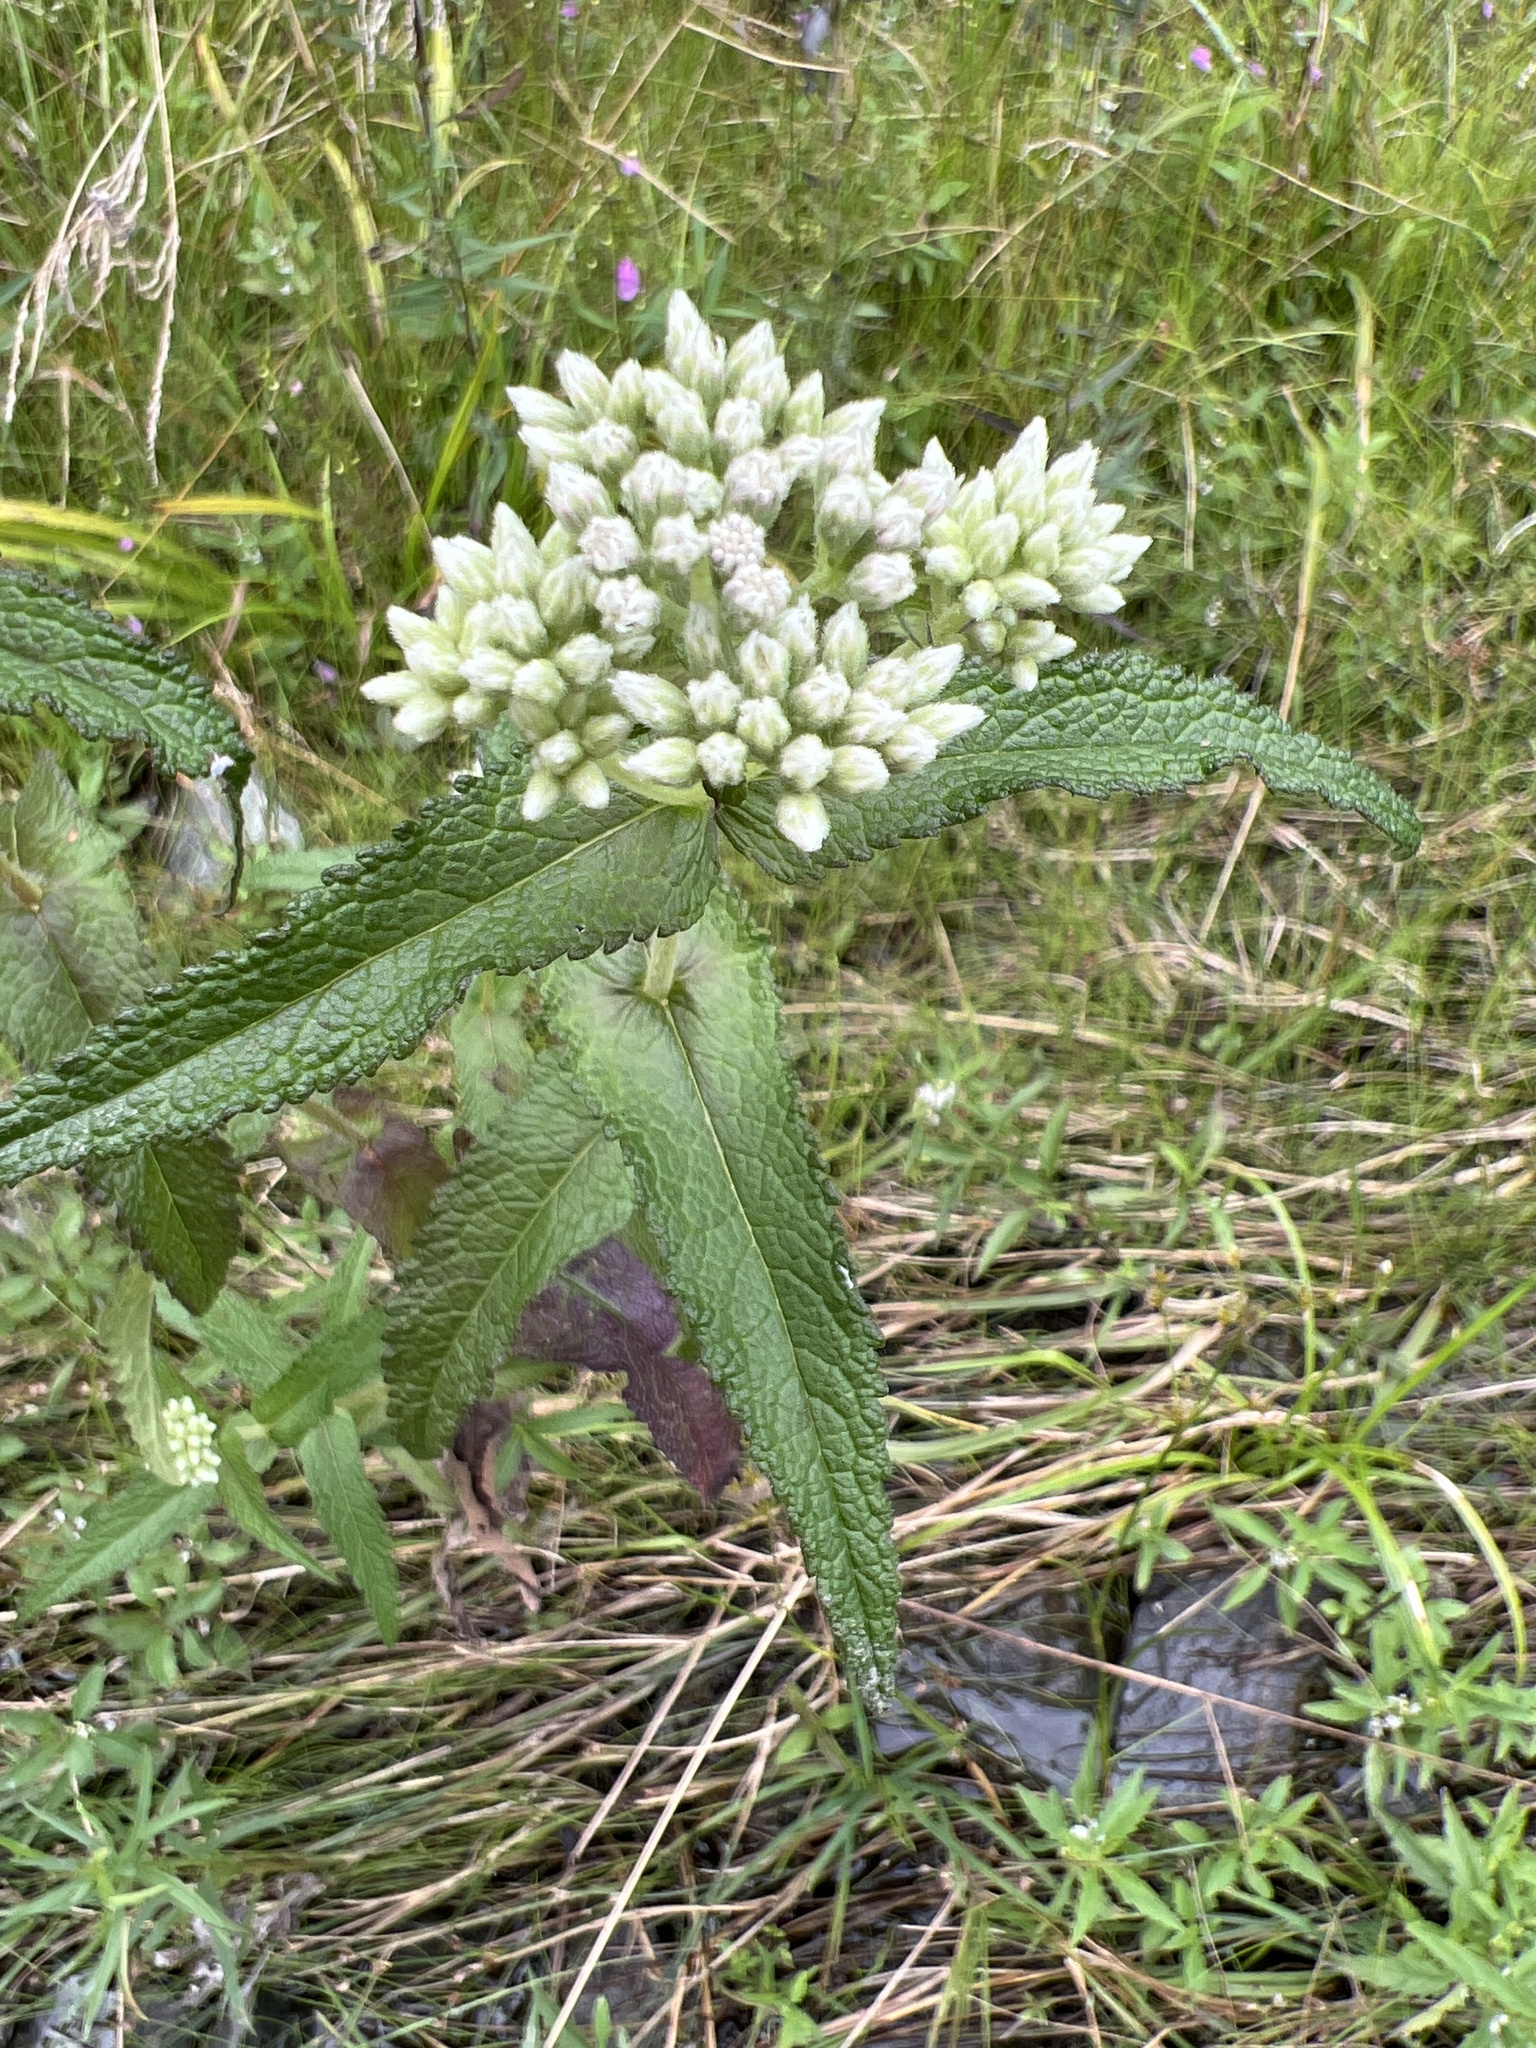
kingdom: Plantae
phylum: Tracheophyta
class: Magnoliopsida
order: Asterales
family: Asteraceae
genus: Eupatorium
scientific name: Eupatorium perfoliatum
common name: Boneset
